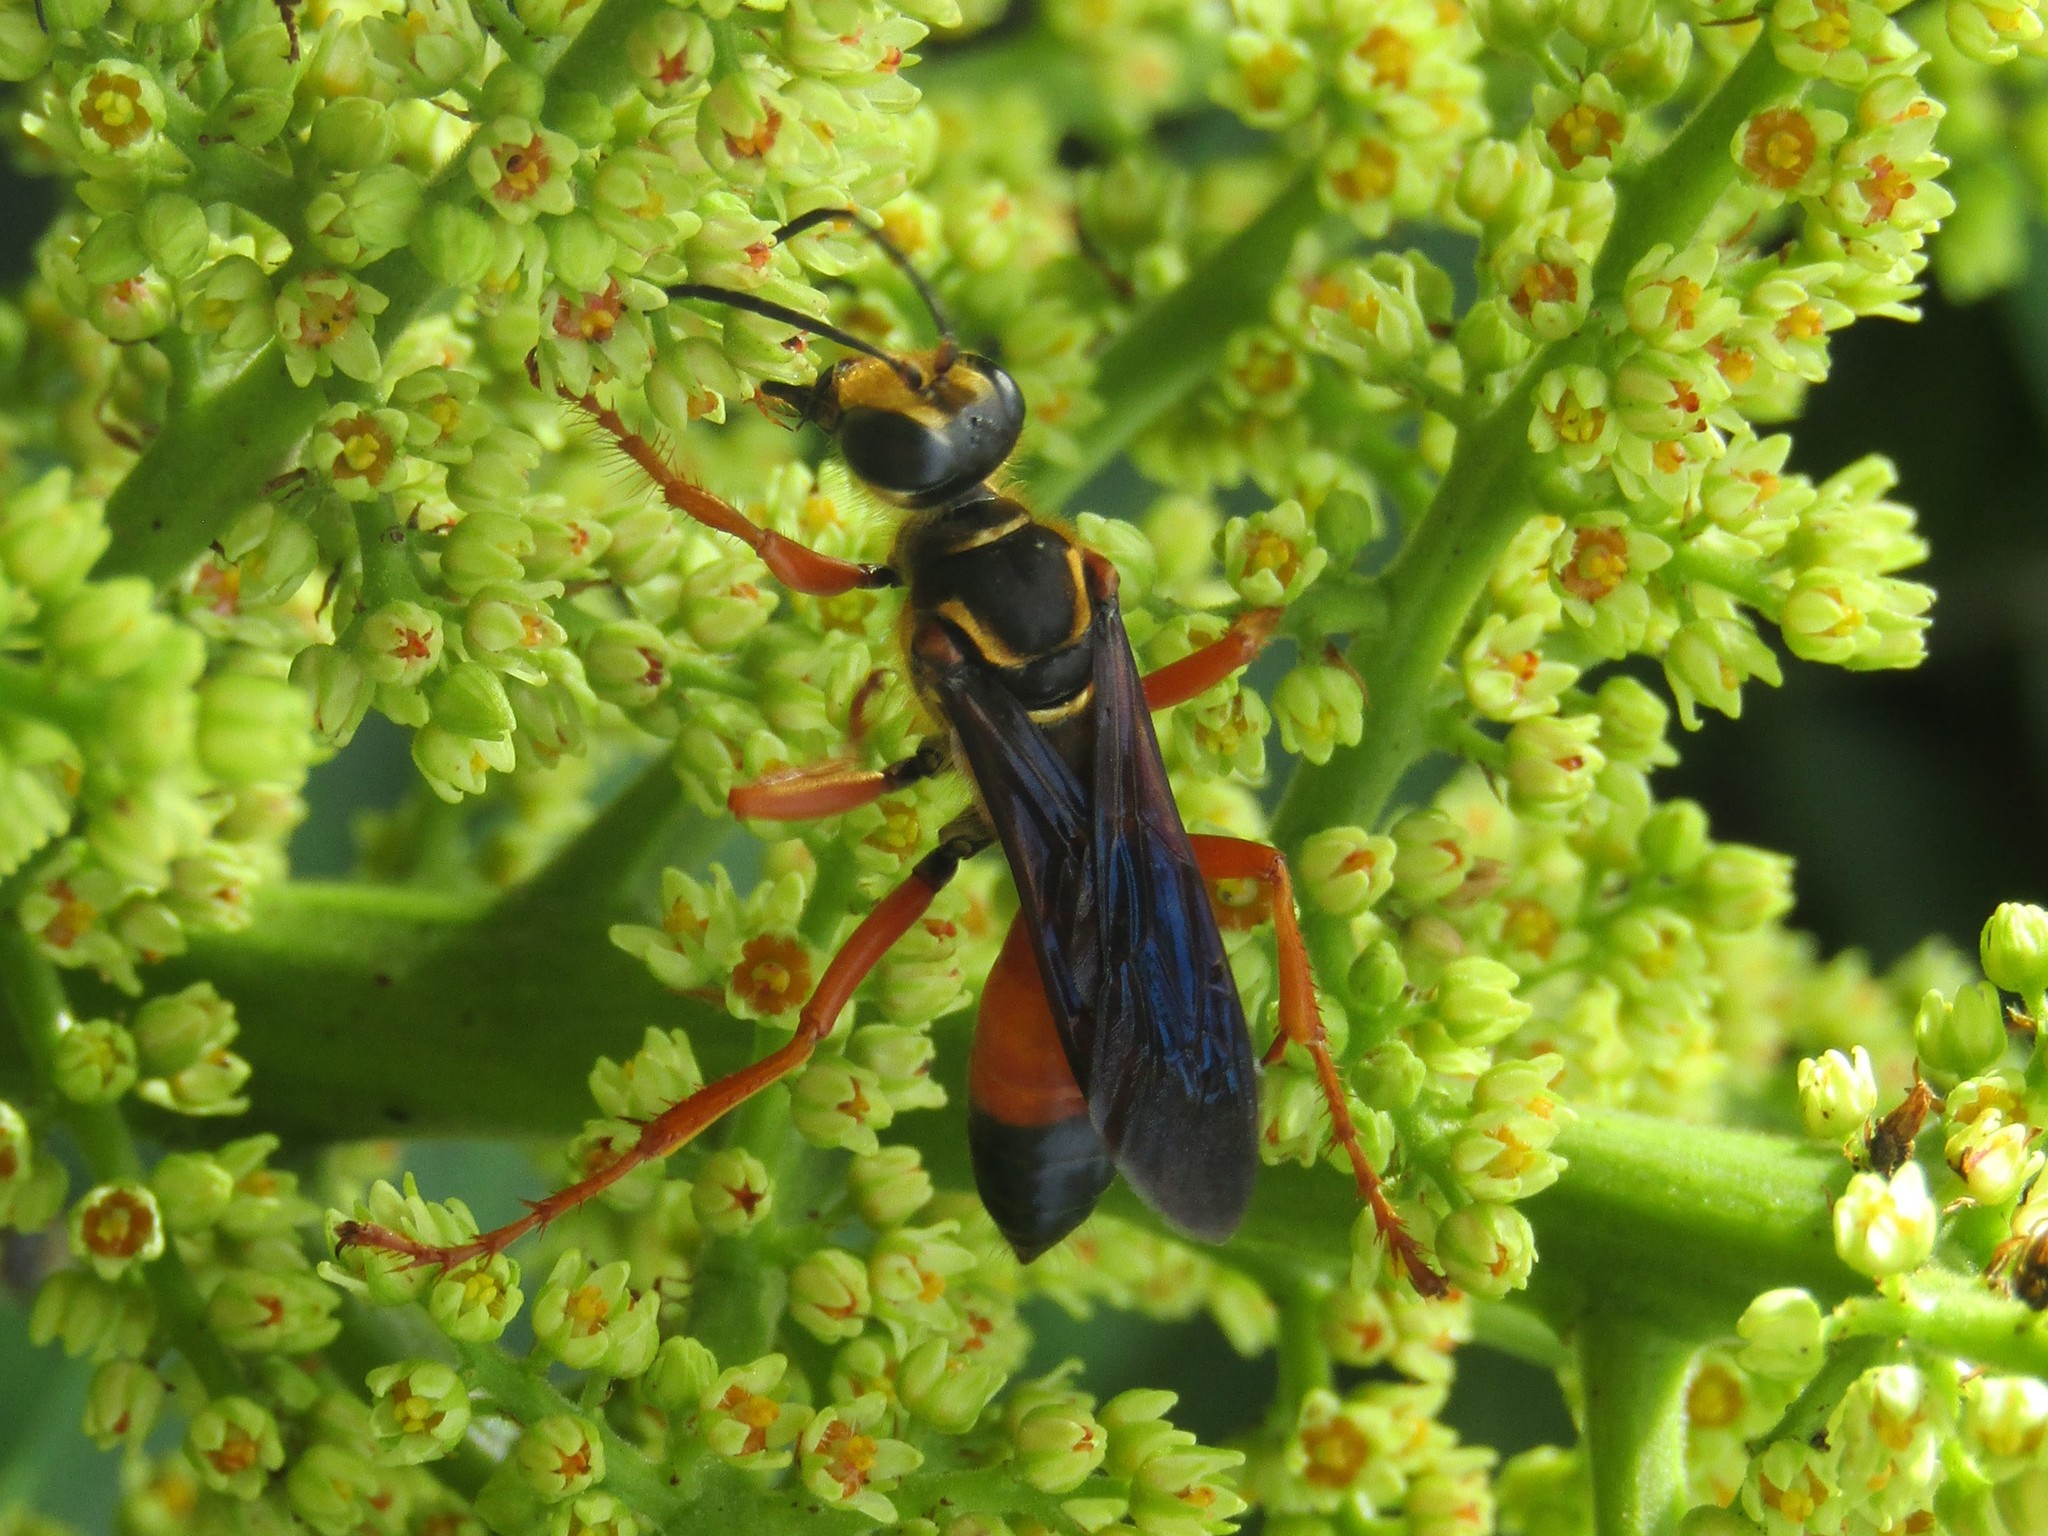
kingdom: Animalia
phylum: Arthropoda
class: Insecta
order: Hymenoptera
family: Sphecidae
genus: Sphex
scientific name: Sphex ichneumoneus
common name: Great golden digger wasp
